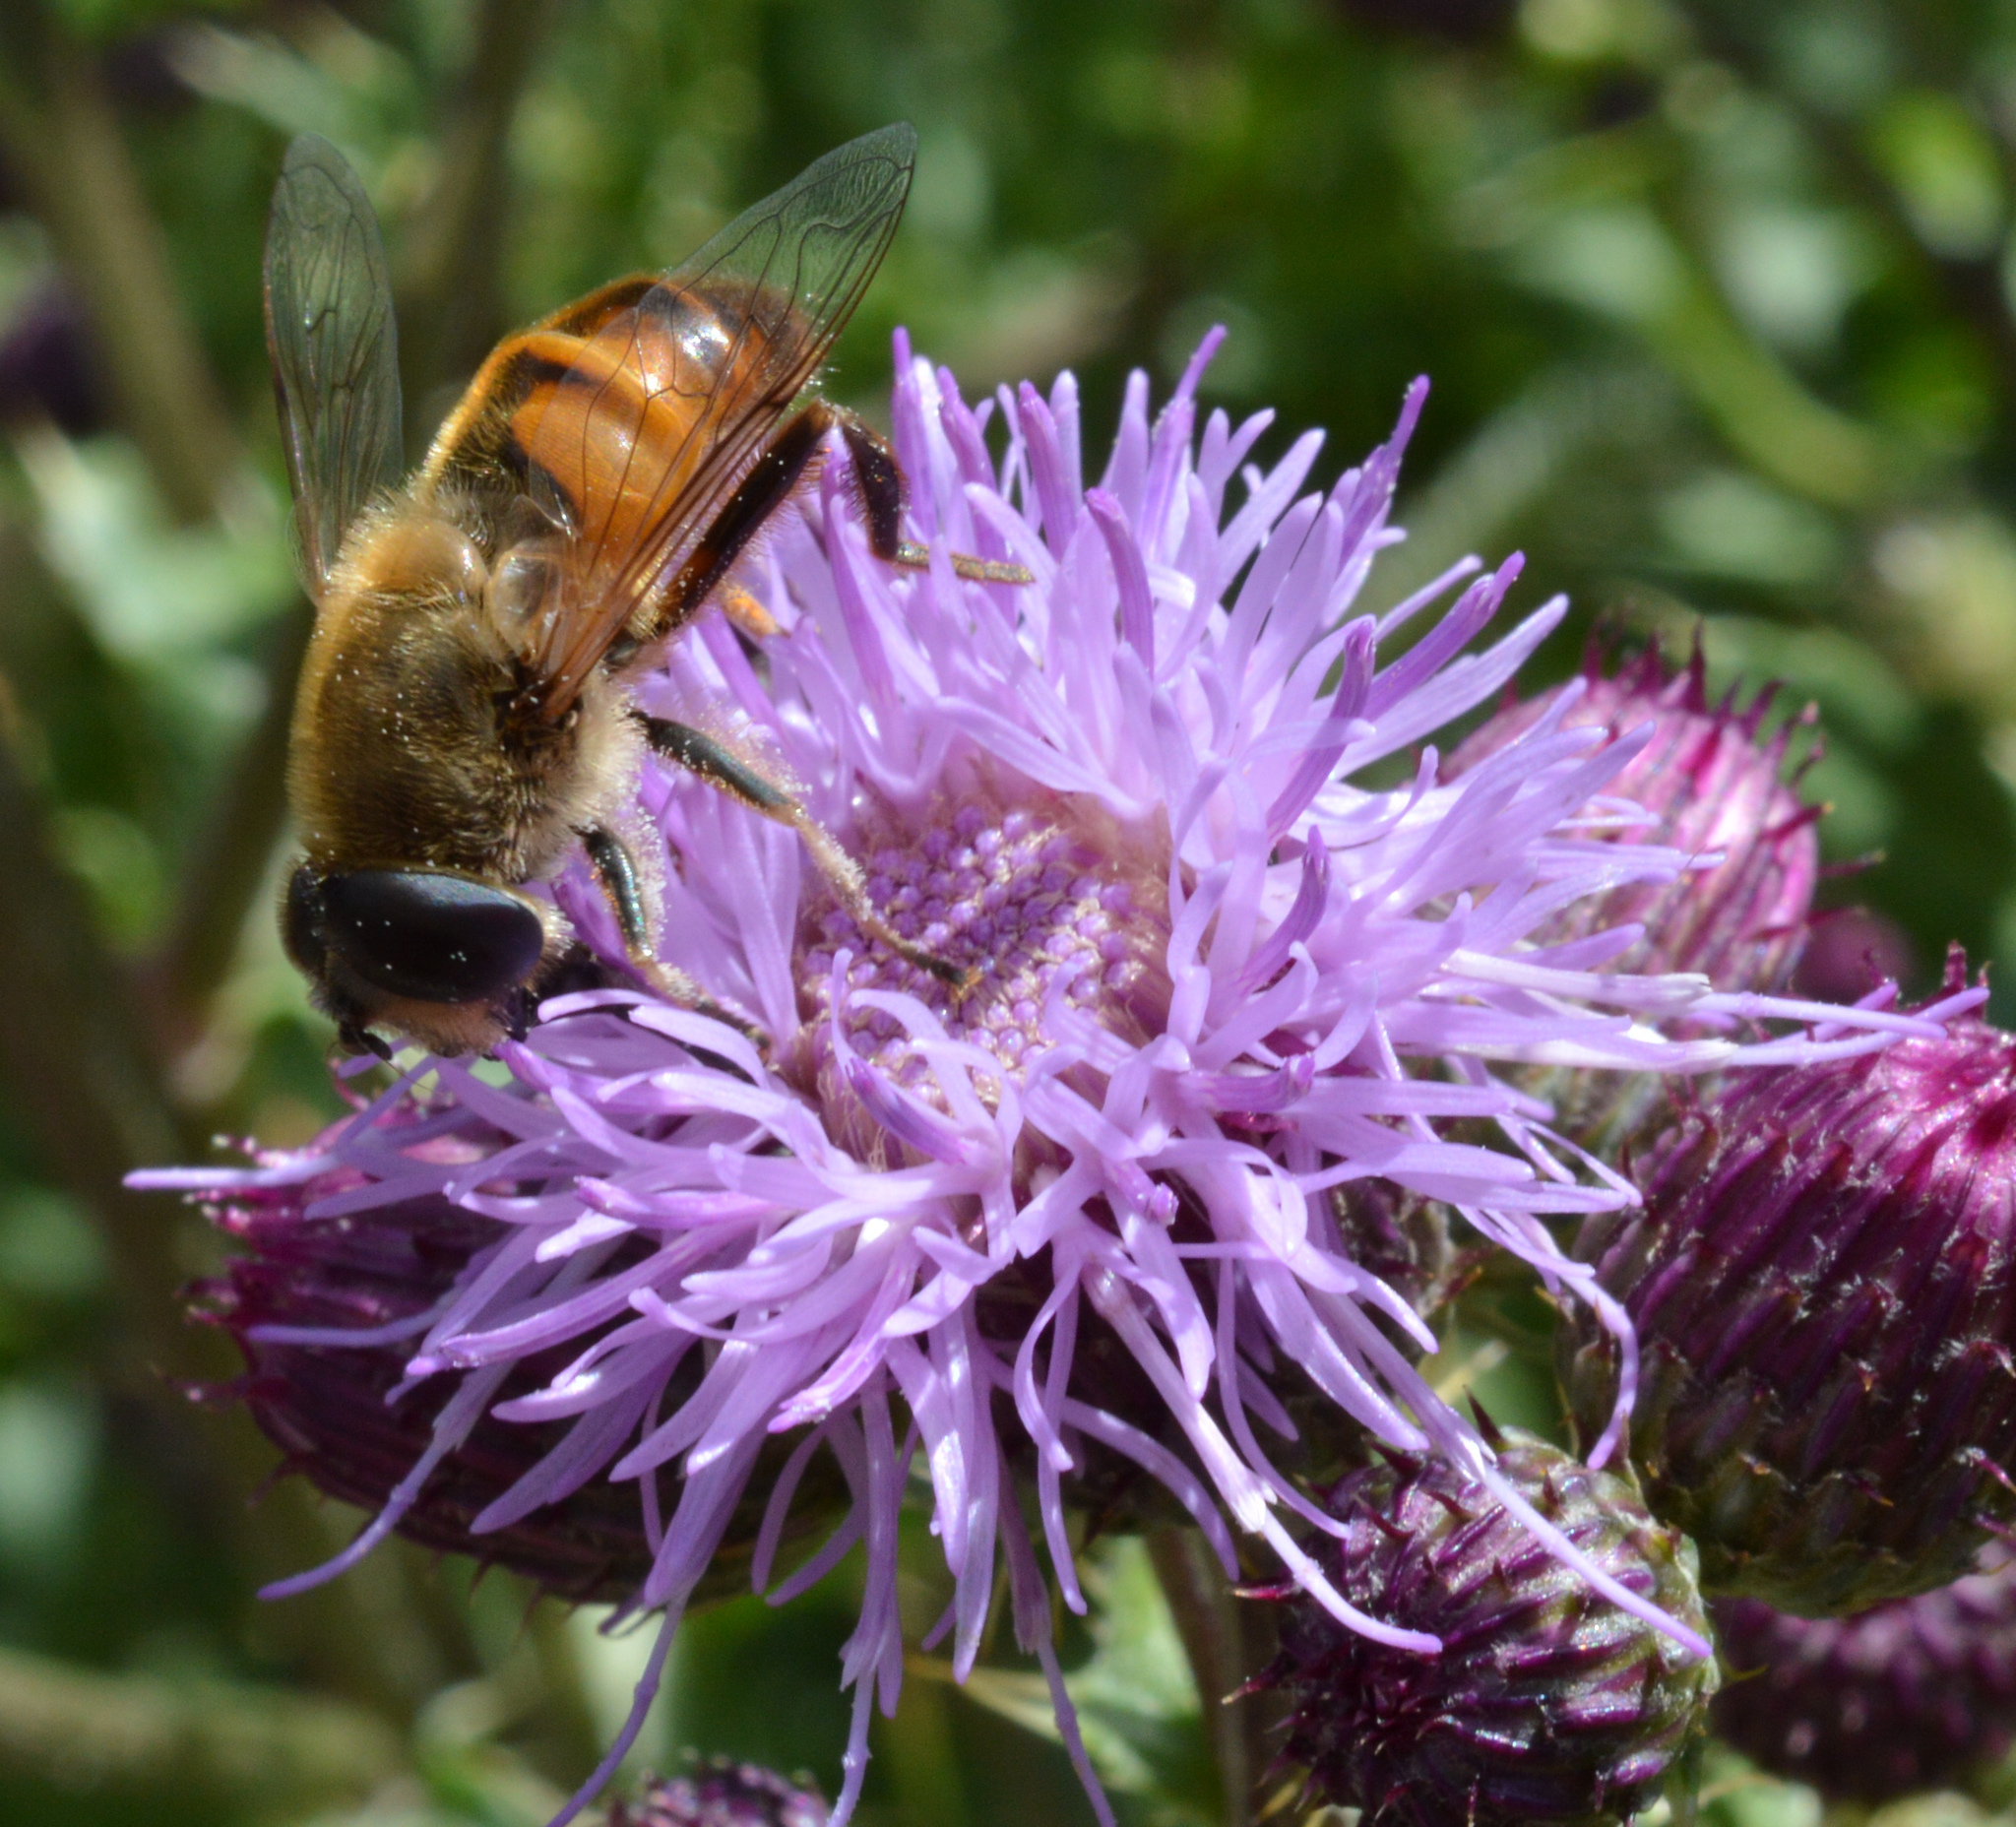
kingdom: Animalia
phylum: Arthropoda
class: Insecta
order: Diptera
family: Syrphidae
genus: Eristalis
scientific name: Eristalis tenax
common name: Drone fly
